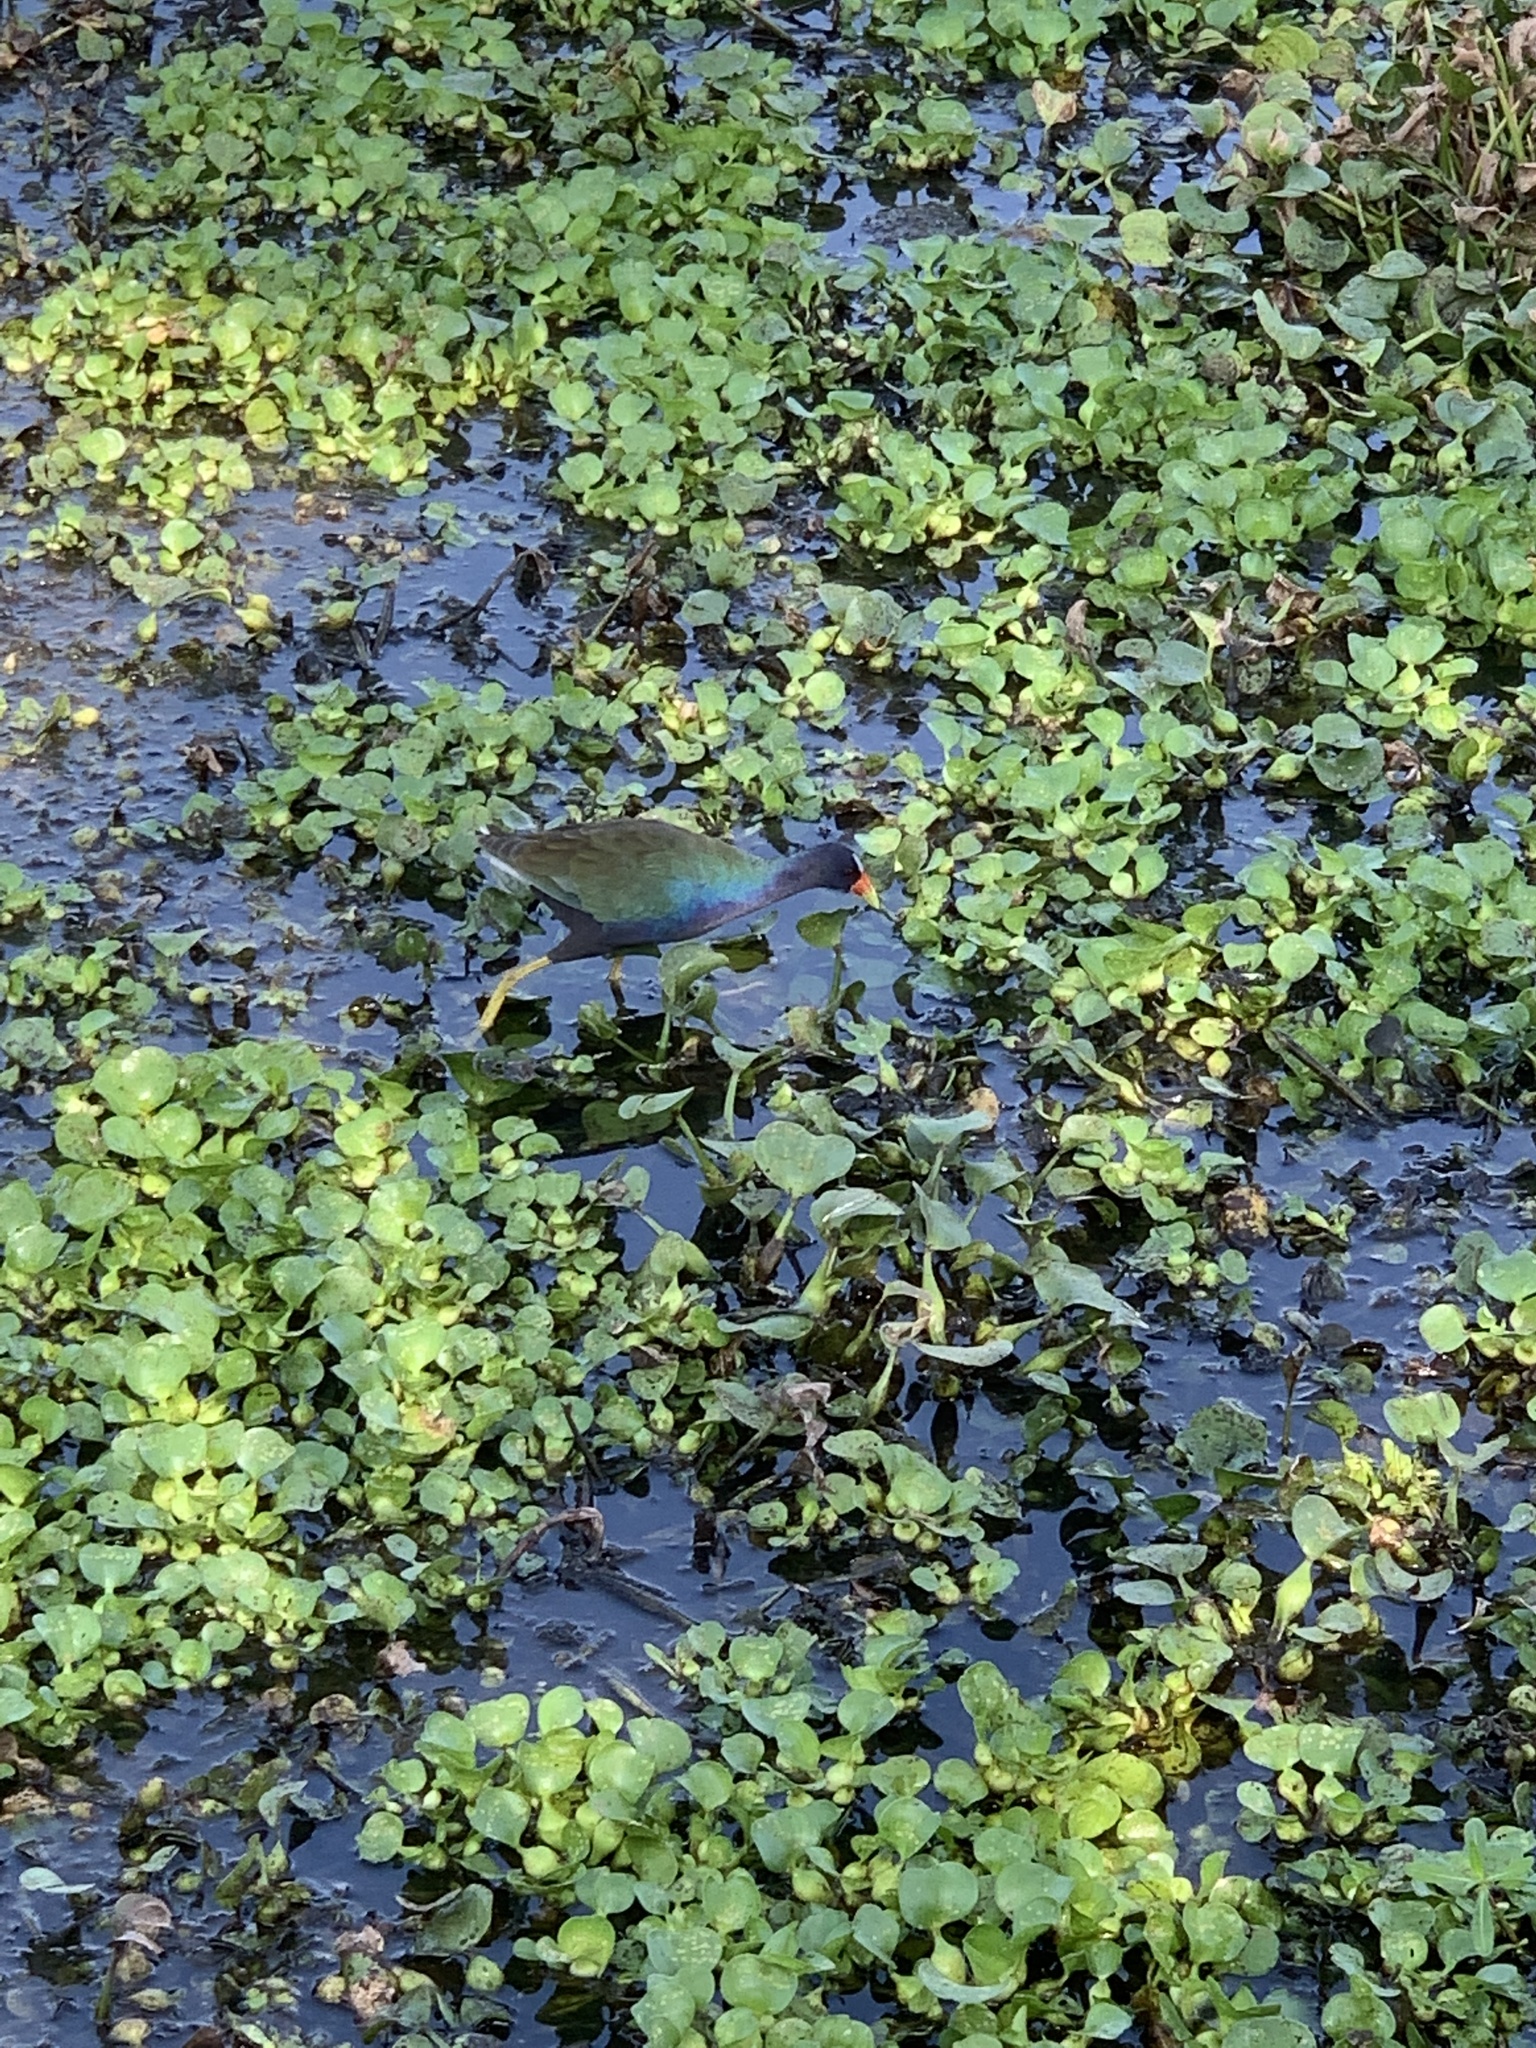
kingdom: Animalia
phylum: Chordata
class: Aves
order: Gruiformes
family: Rallidae
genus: Porphyrio
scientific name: Porphyrio martinica
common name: Purple gallinule
